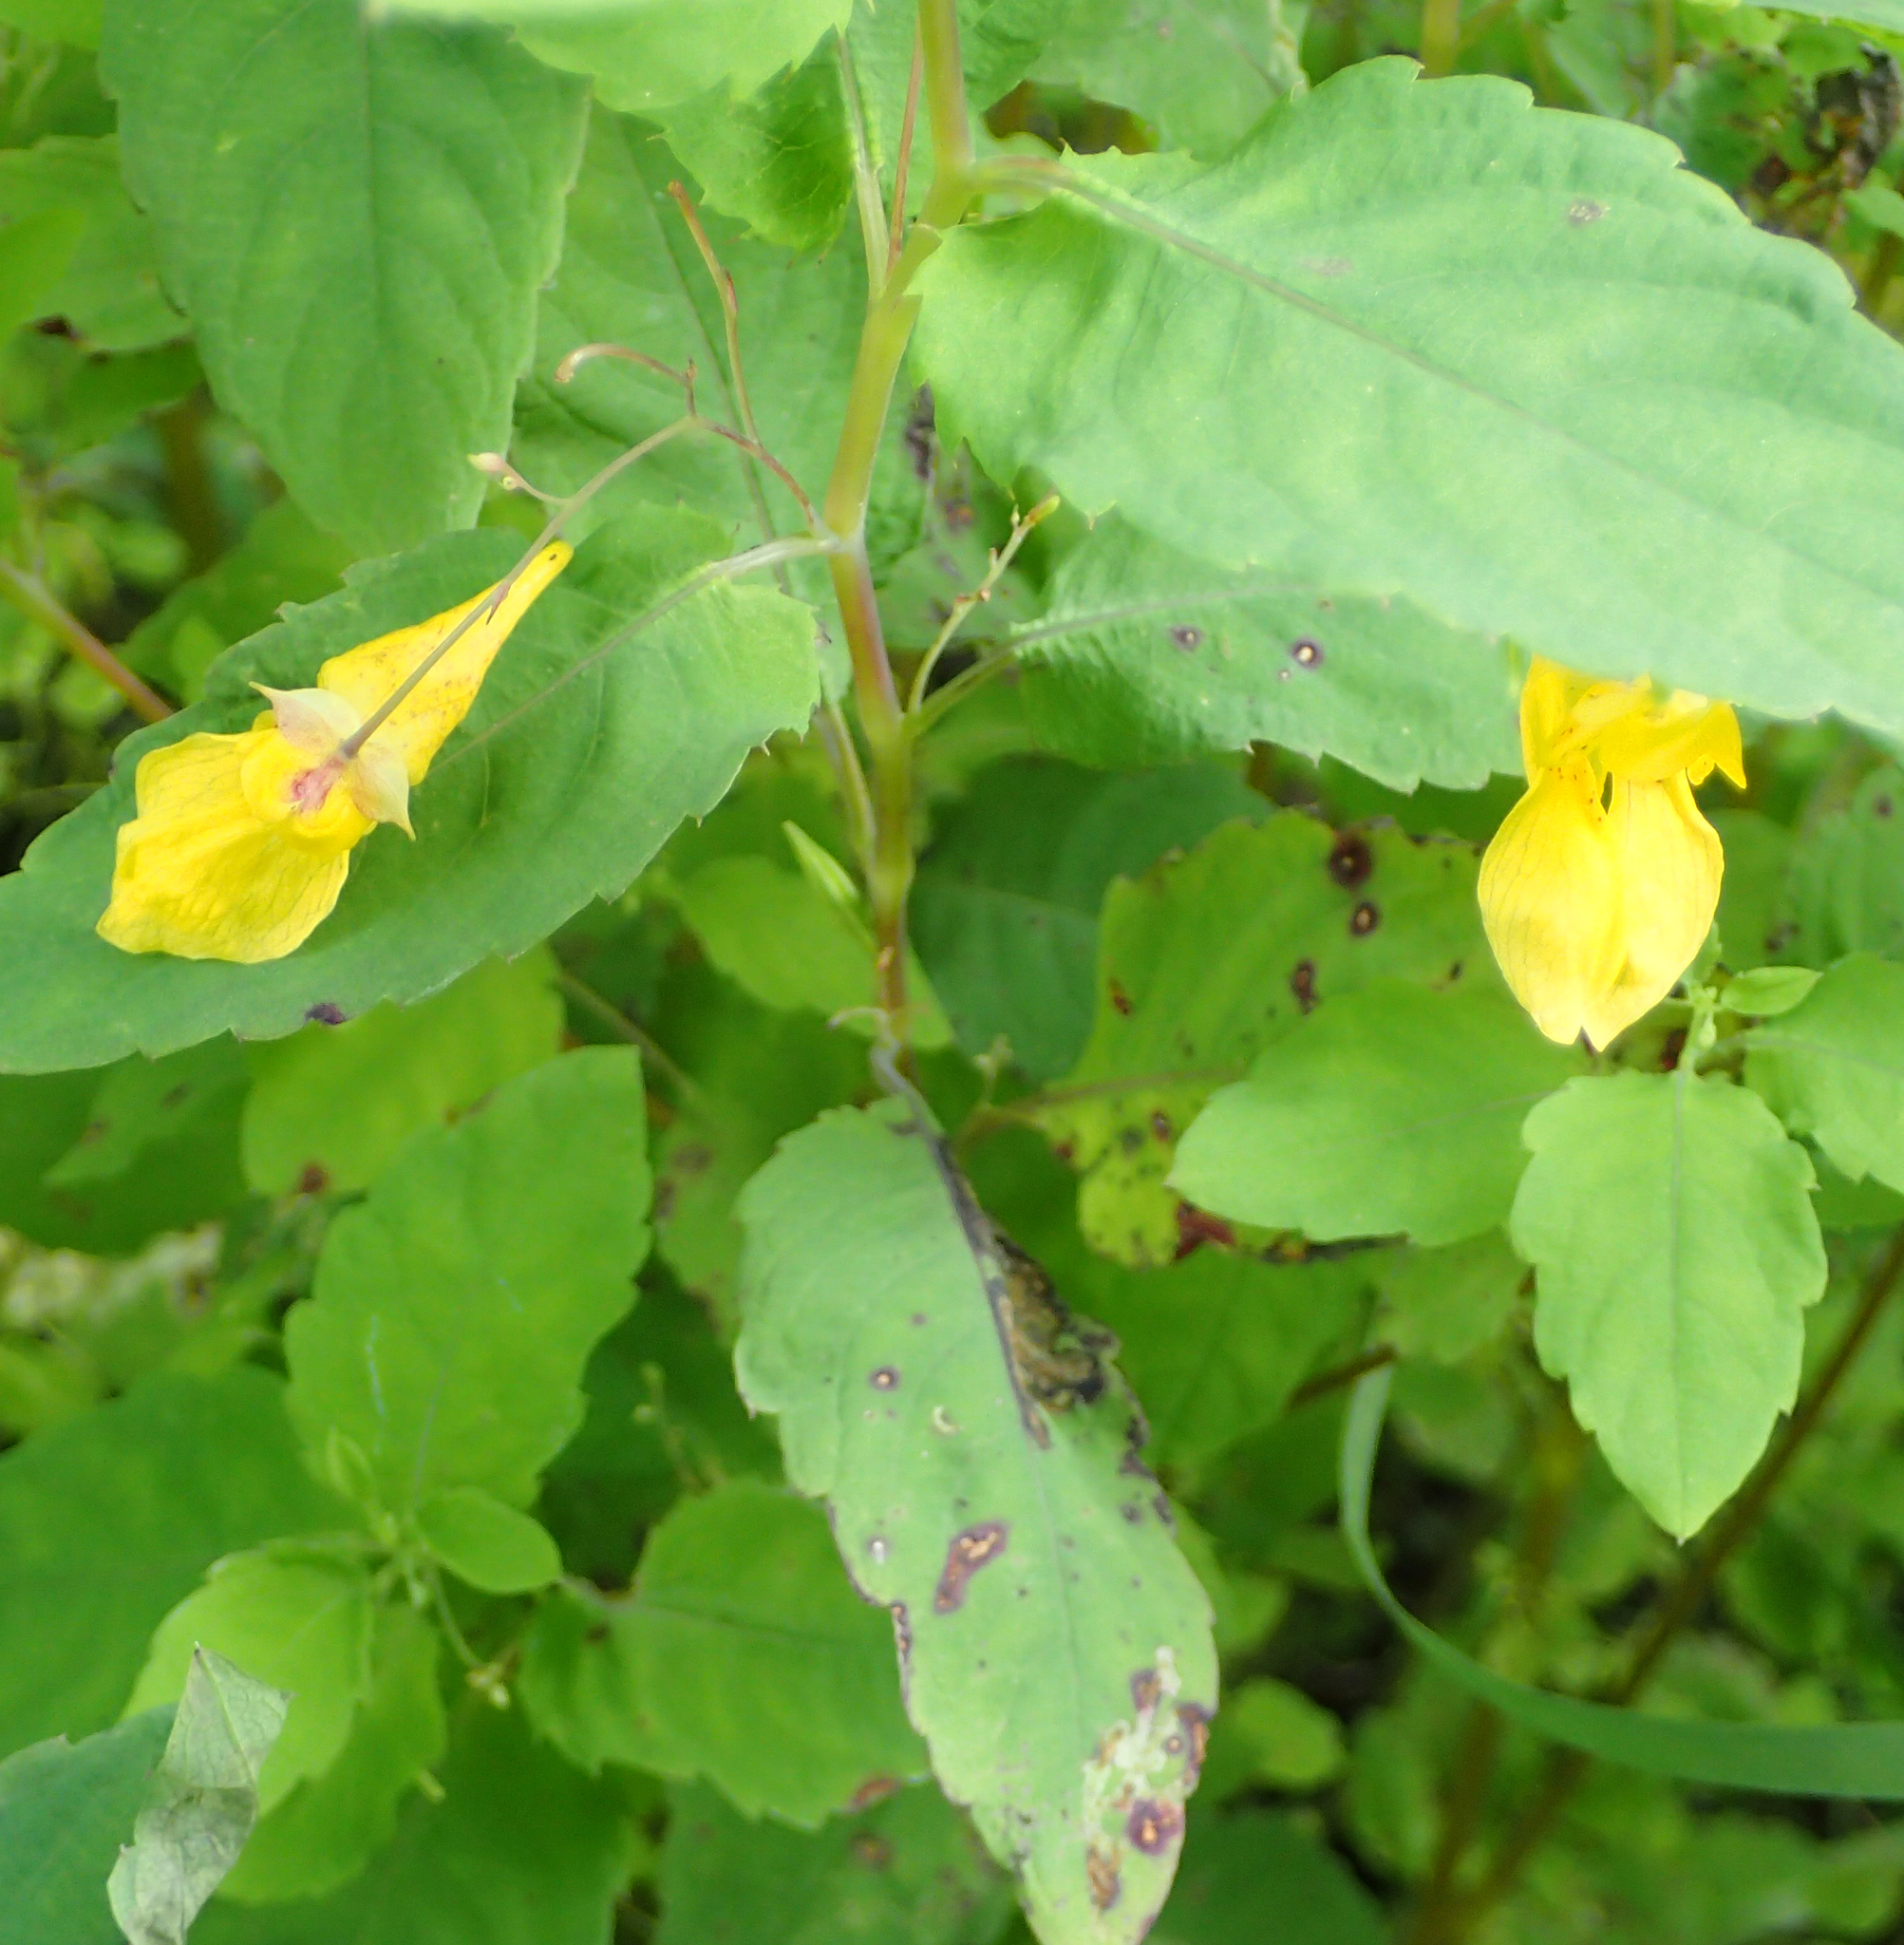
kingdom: Plantae
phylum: Tracheophyta
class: Magnoliopsida
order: Ericales
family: Balsaminaceae
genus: Impatiens
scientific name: Impatiens noli-tangere
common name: Touch-me-not balsam
